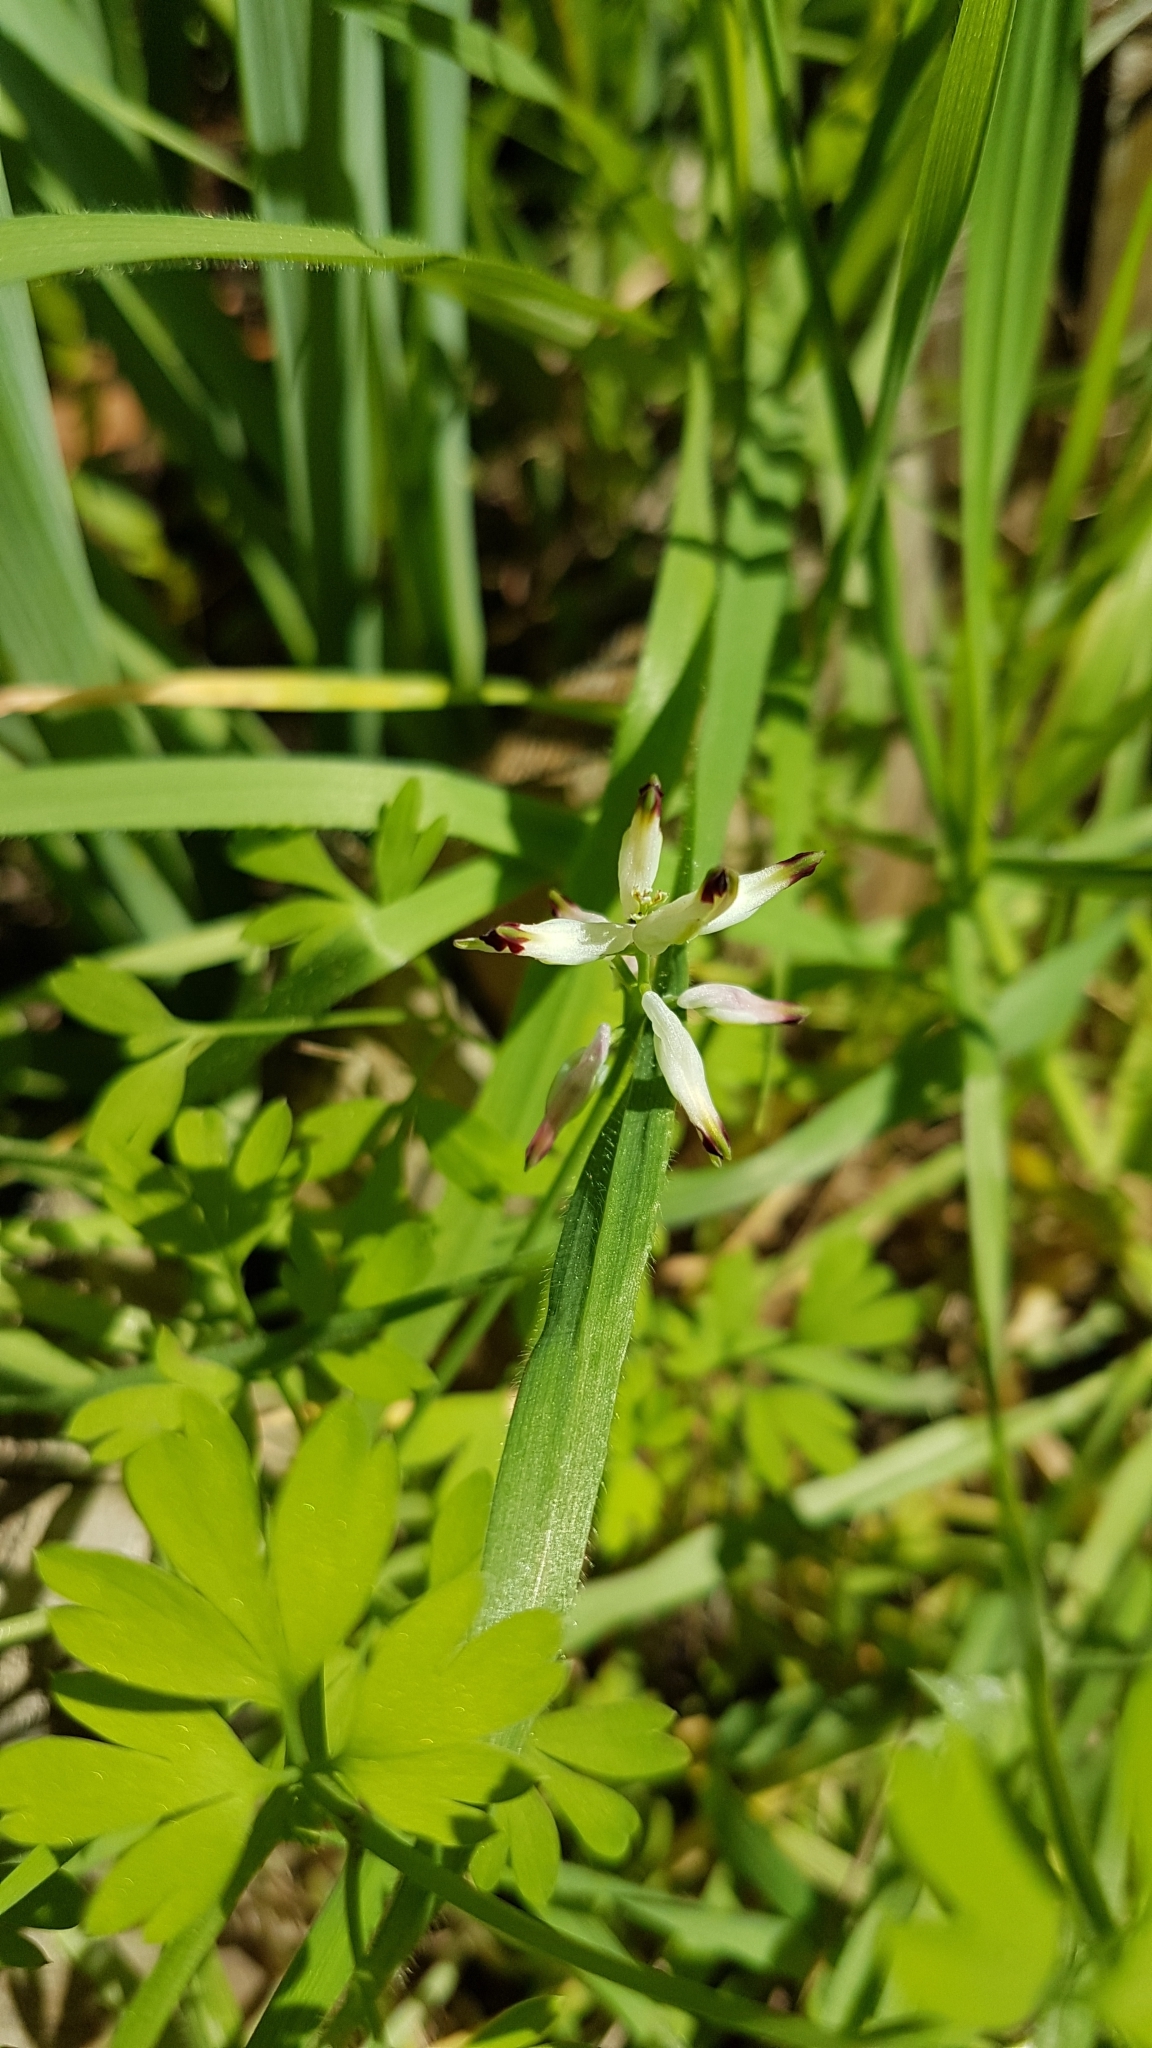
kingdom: Plantae
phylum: Tracheophyta
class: Magnoliopsida
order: Ranunculales
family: Papaveraceae
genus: Fumaria
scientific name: Fumaria capreolata
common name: White ramping-fumitory
